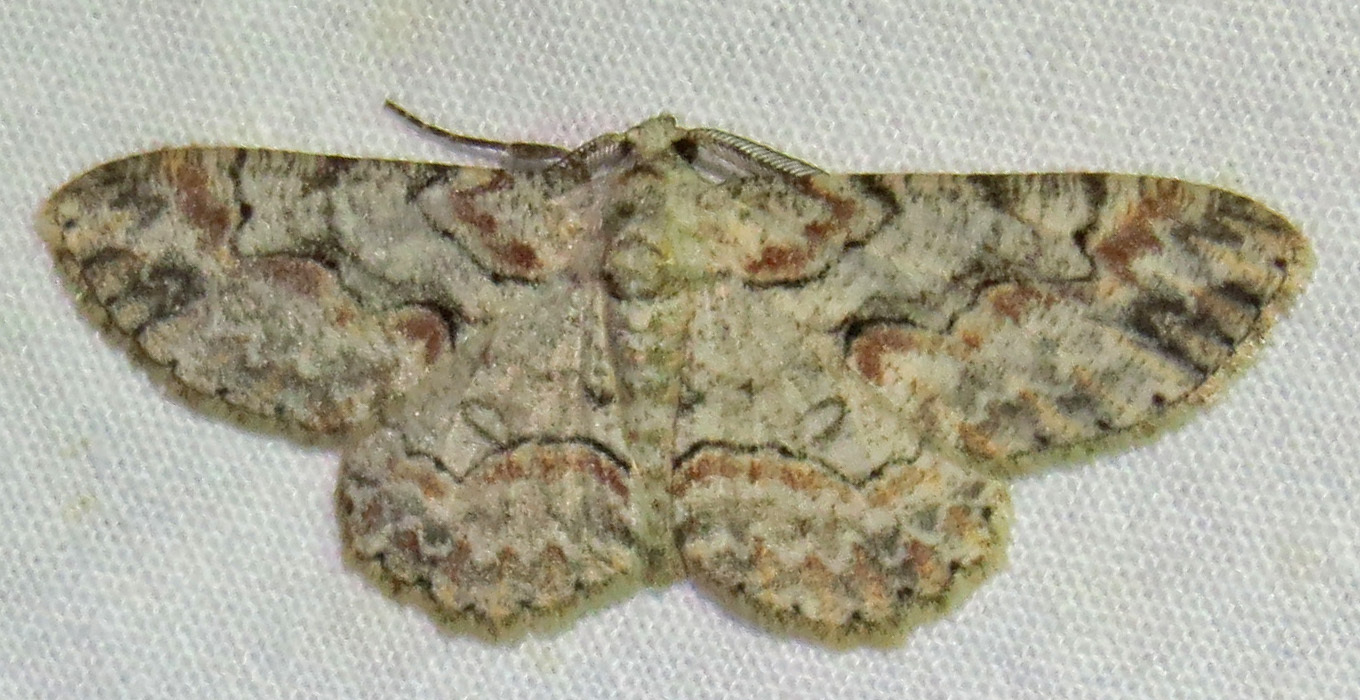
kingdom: Animalia
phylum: Arthropoda
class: Insecta
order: Lepidoptera
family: Geometridae
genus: Iridopsis
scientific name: Iridopsis defectaria
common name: Brown-shaded gray
